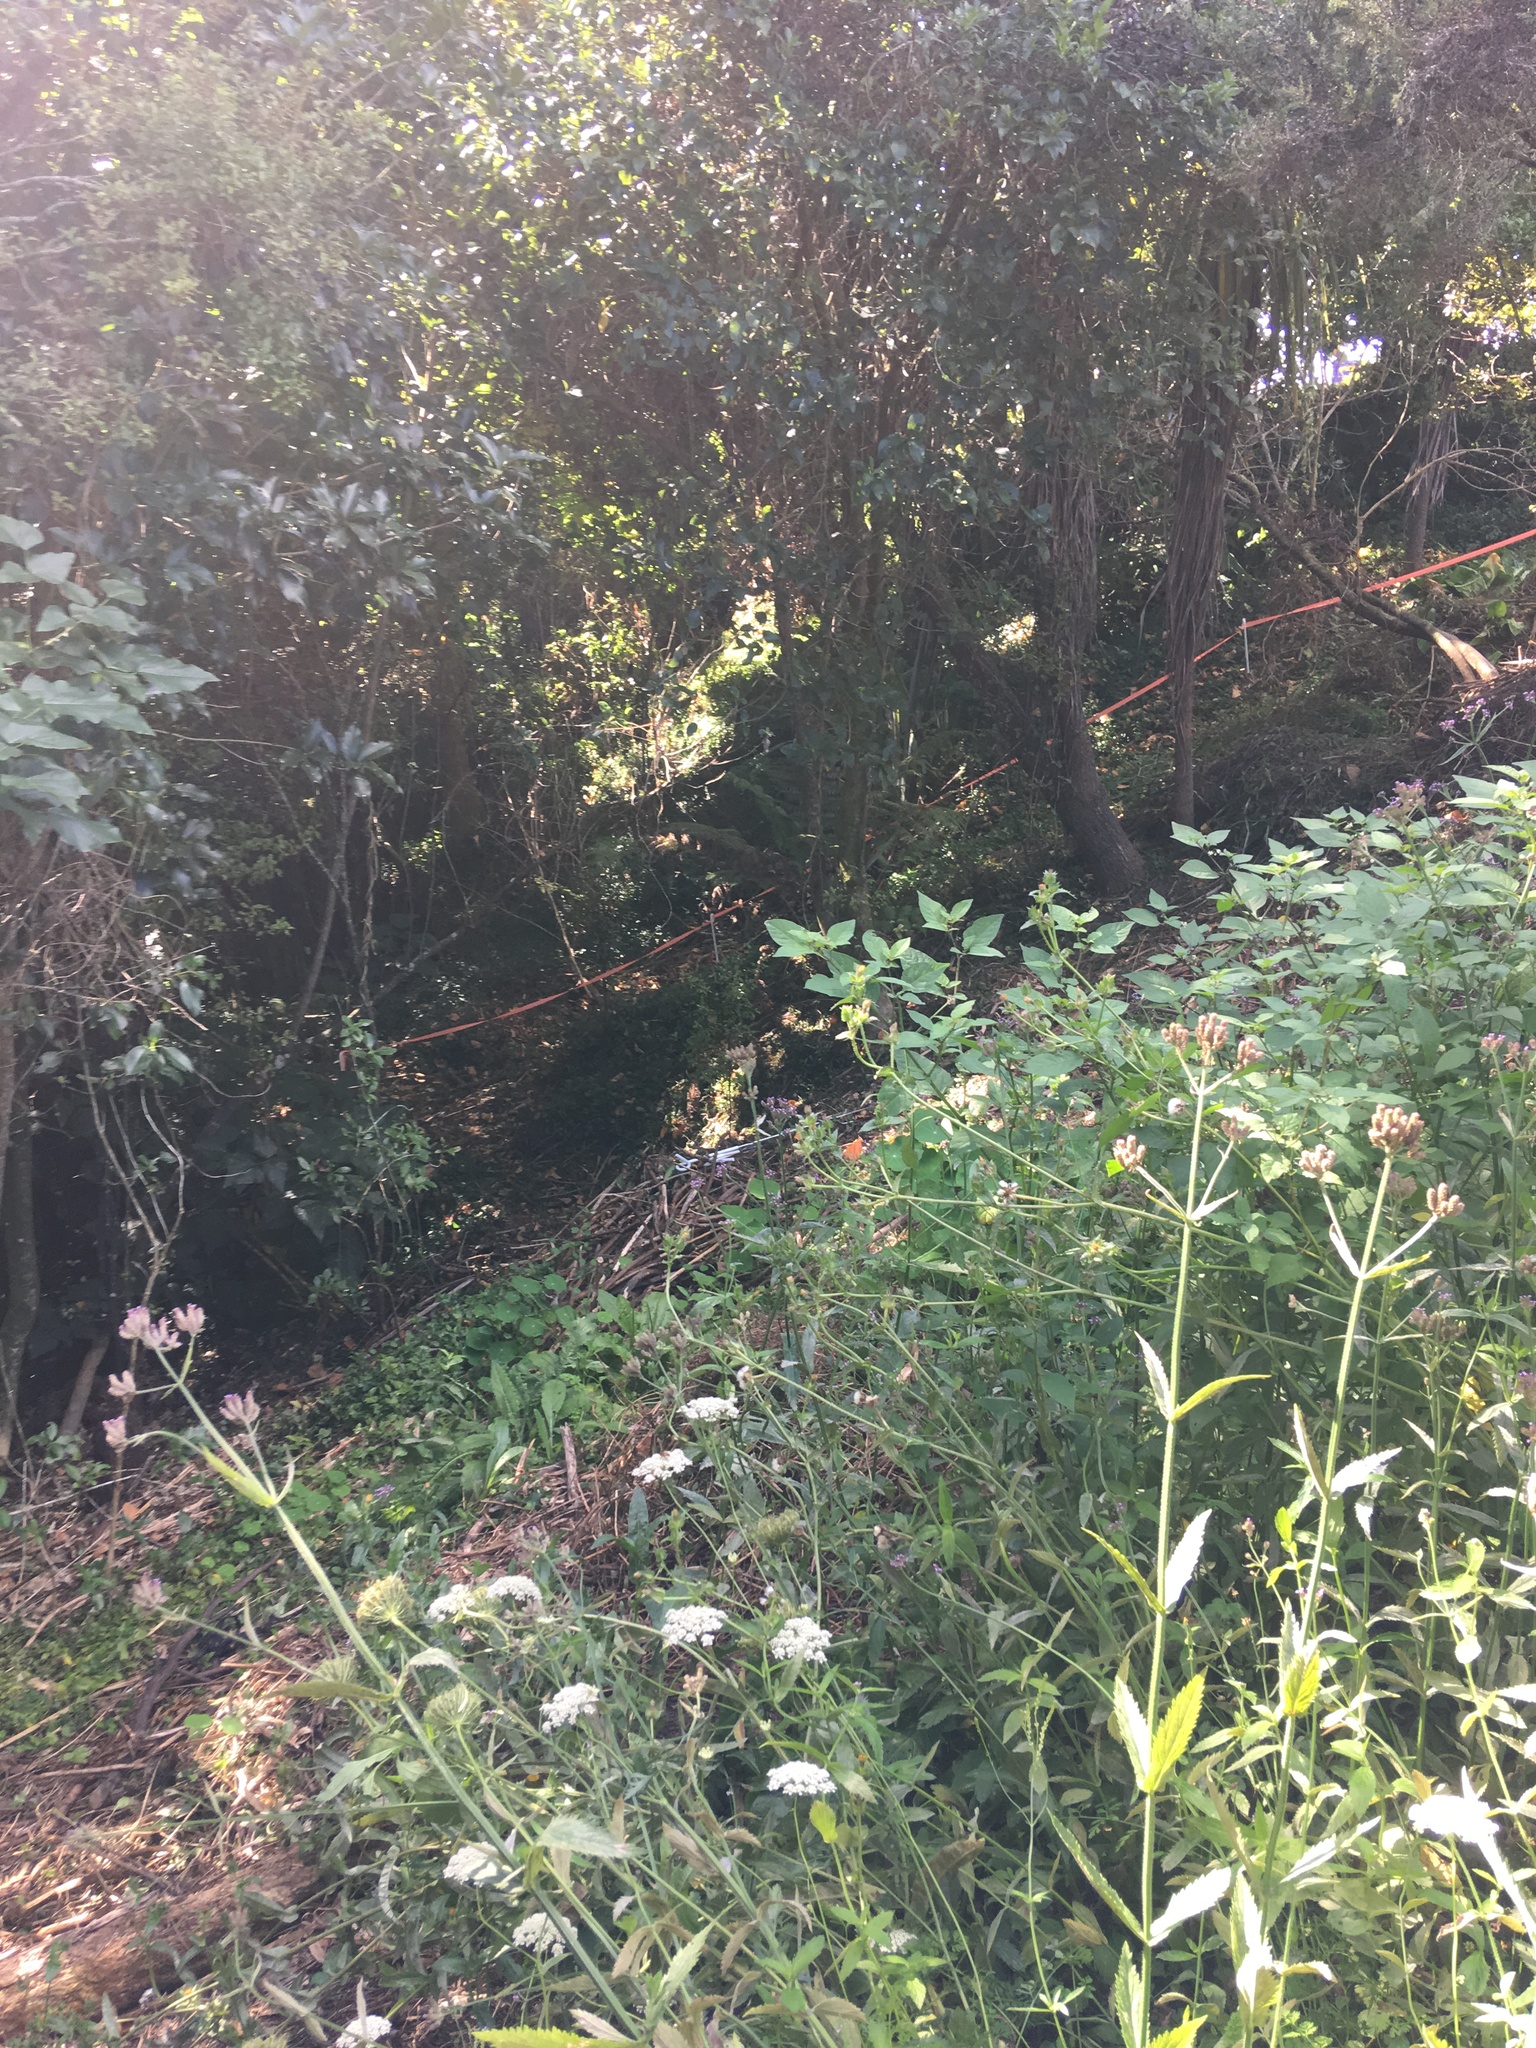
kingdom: Plantae
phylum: Tracheophyta
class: Magnoliopsida
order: Lamiales
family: Verbenaceae
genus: Verbena
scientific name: Verbena incompta
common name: Purpletop vervain
